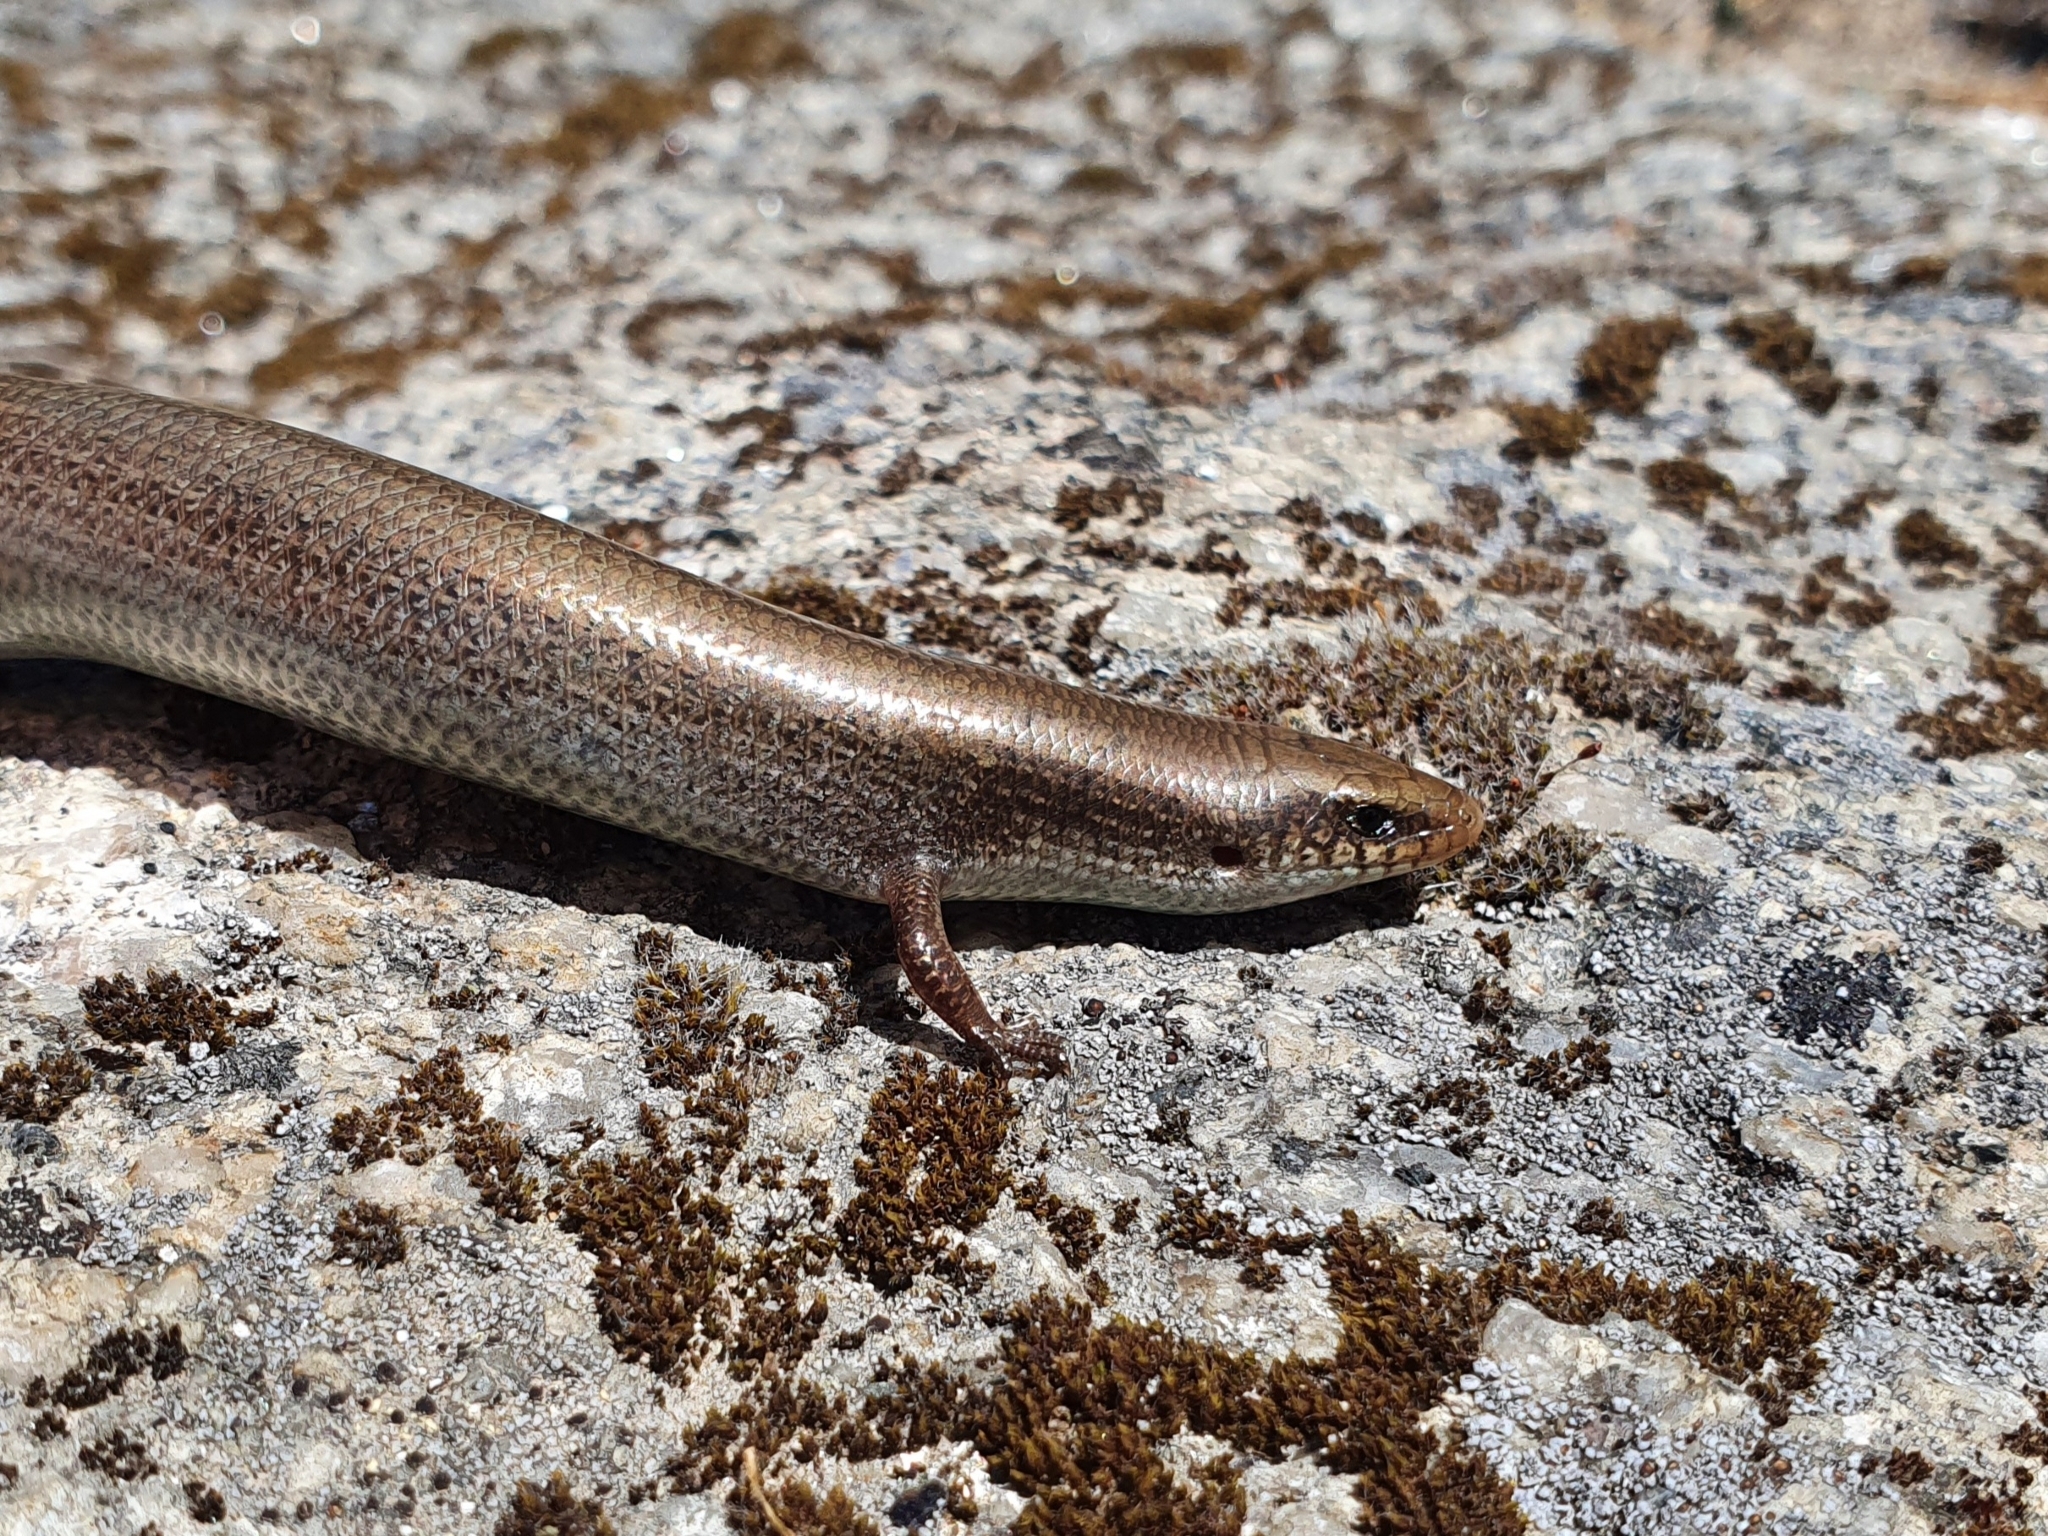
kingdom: Animalia
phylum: Chordata
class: Squamata
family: Scincidae
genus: Chalcides
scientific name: Chalcides bedriagai
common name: Spanish cylindrical skink
